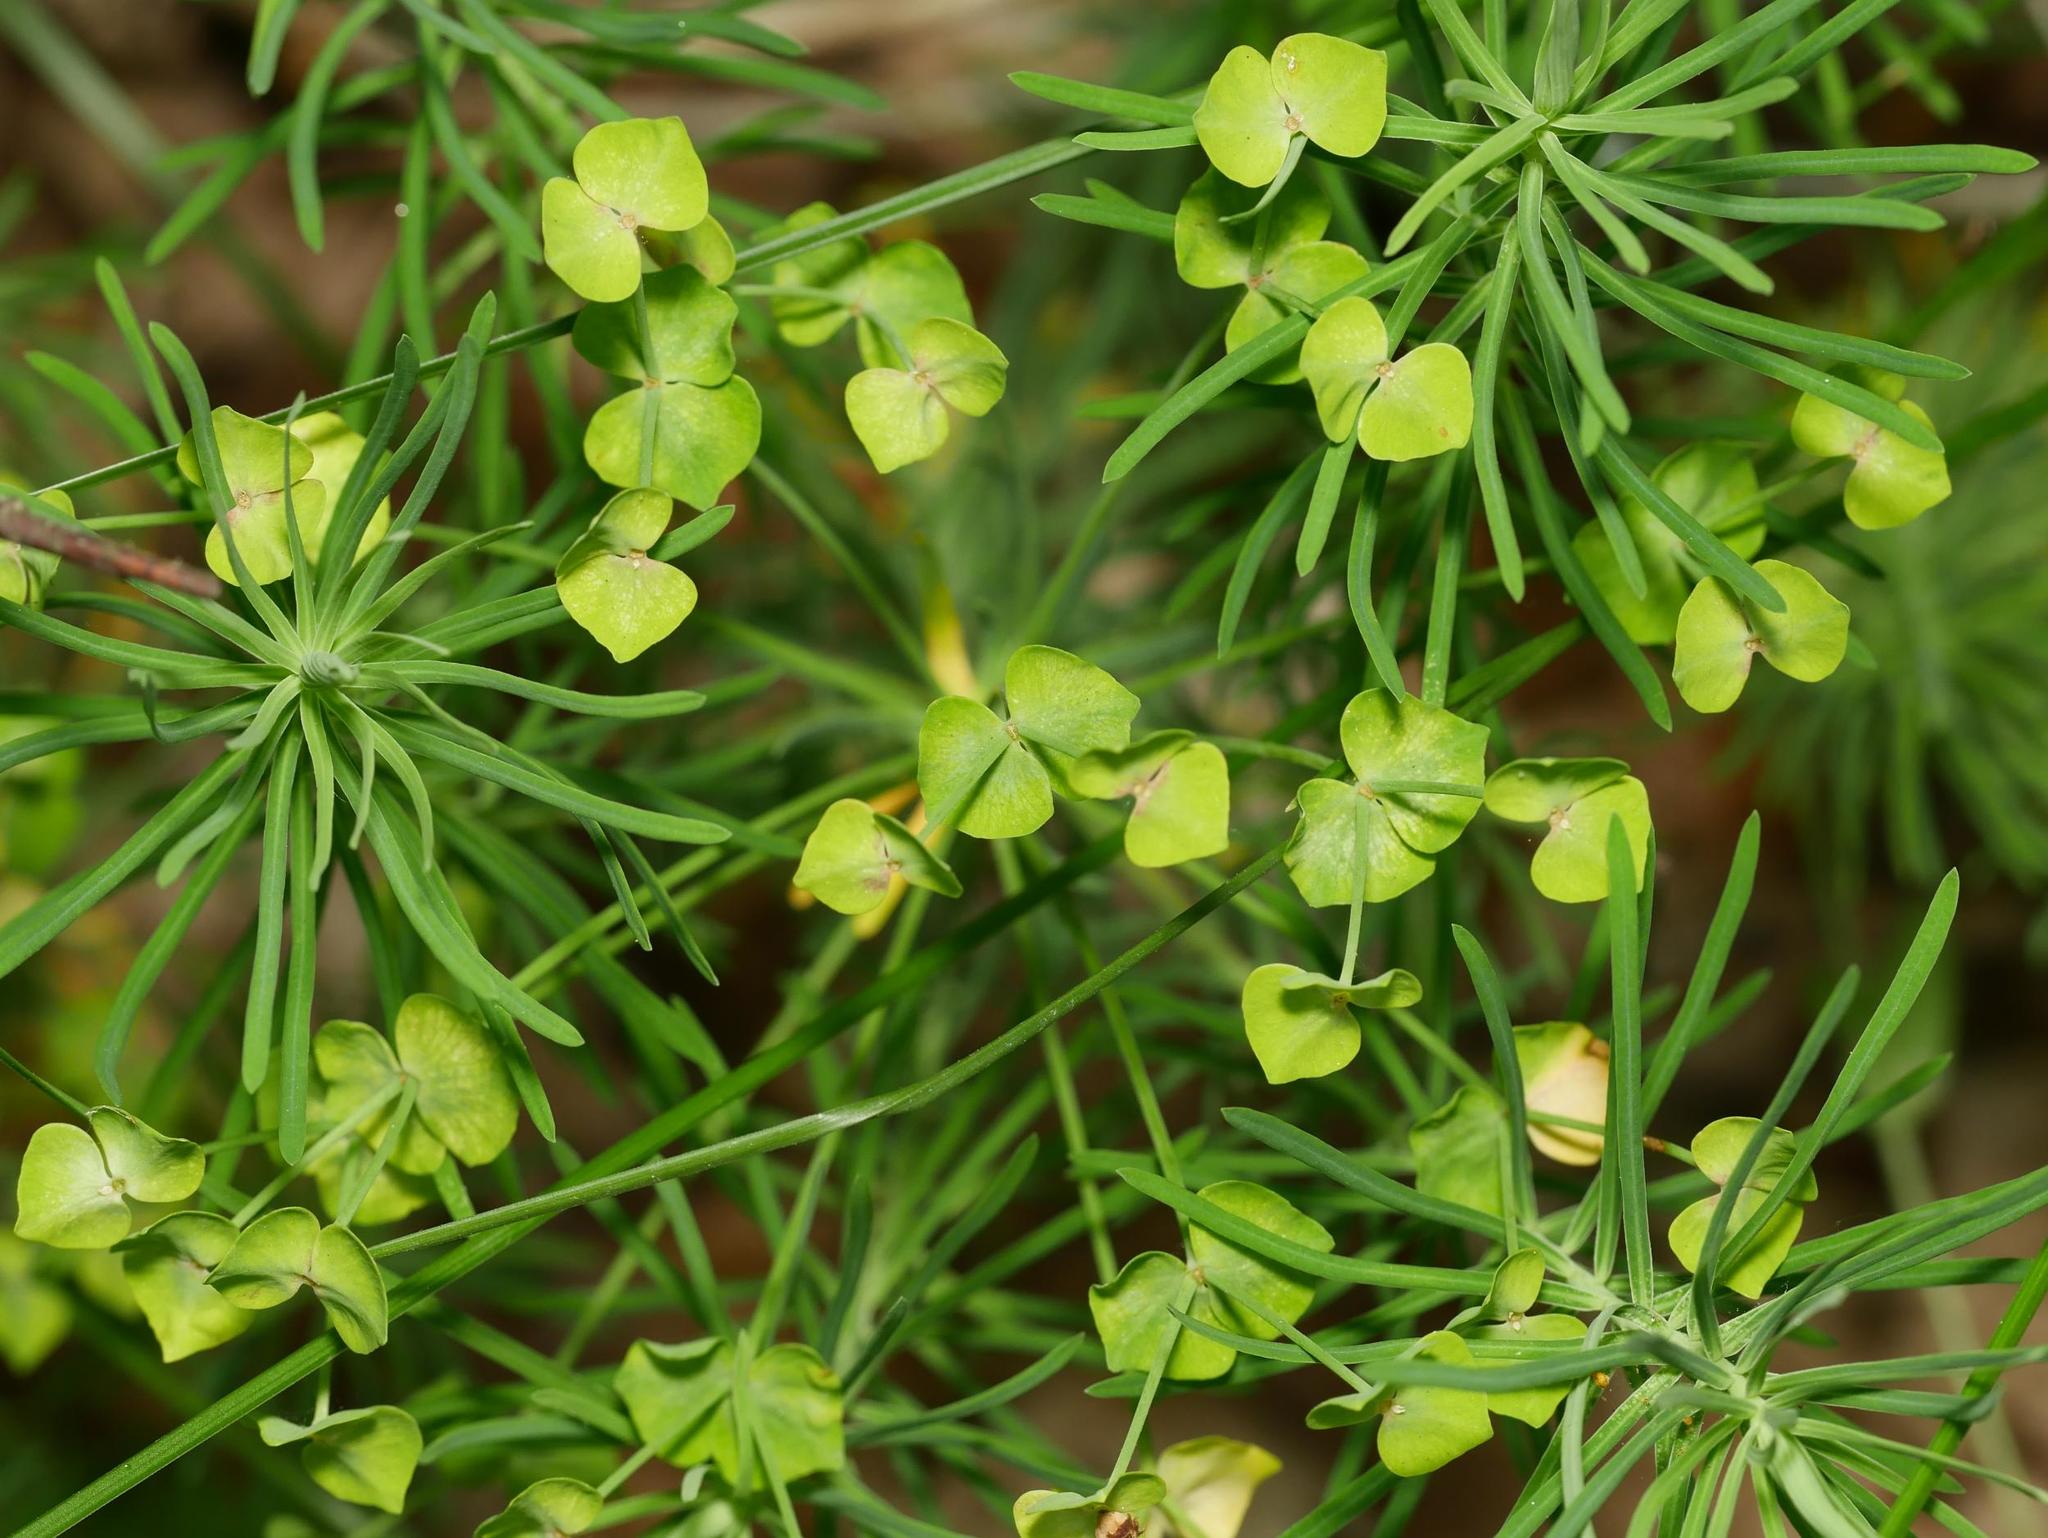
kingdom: Plantae
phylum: Tracheophyta
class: Magnoliopsida
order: Malpighiales
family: Euphorbiaceae
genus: Euphorbia
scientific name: Euphorbia cyparissias
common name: Cypress spurge
